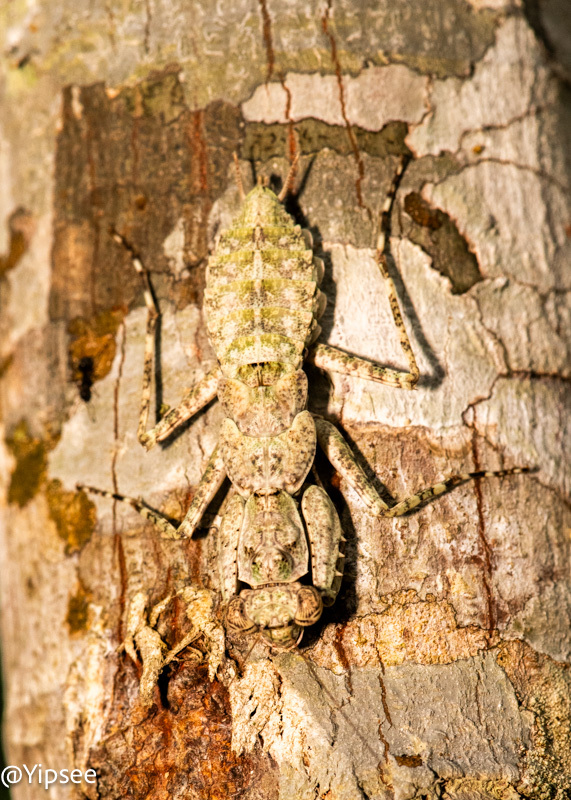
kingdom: Animalia
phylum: Arthropoda
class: Insecta
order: Mantodea
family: Gonypetidae
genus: Theopompa
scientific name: Theopompa ophthalmica
